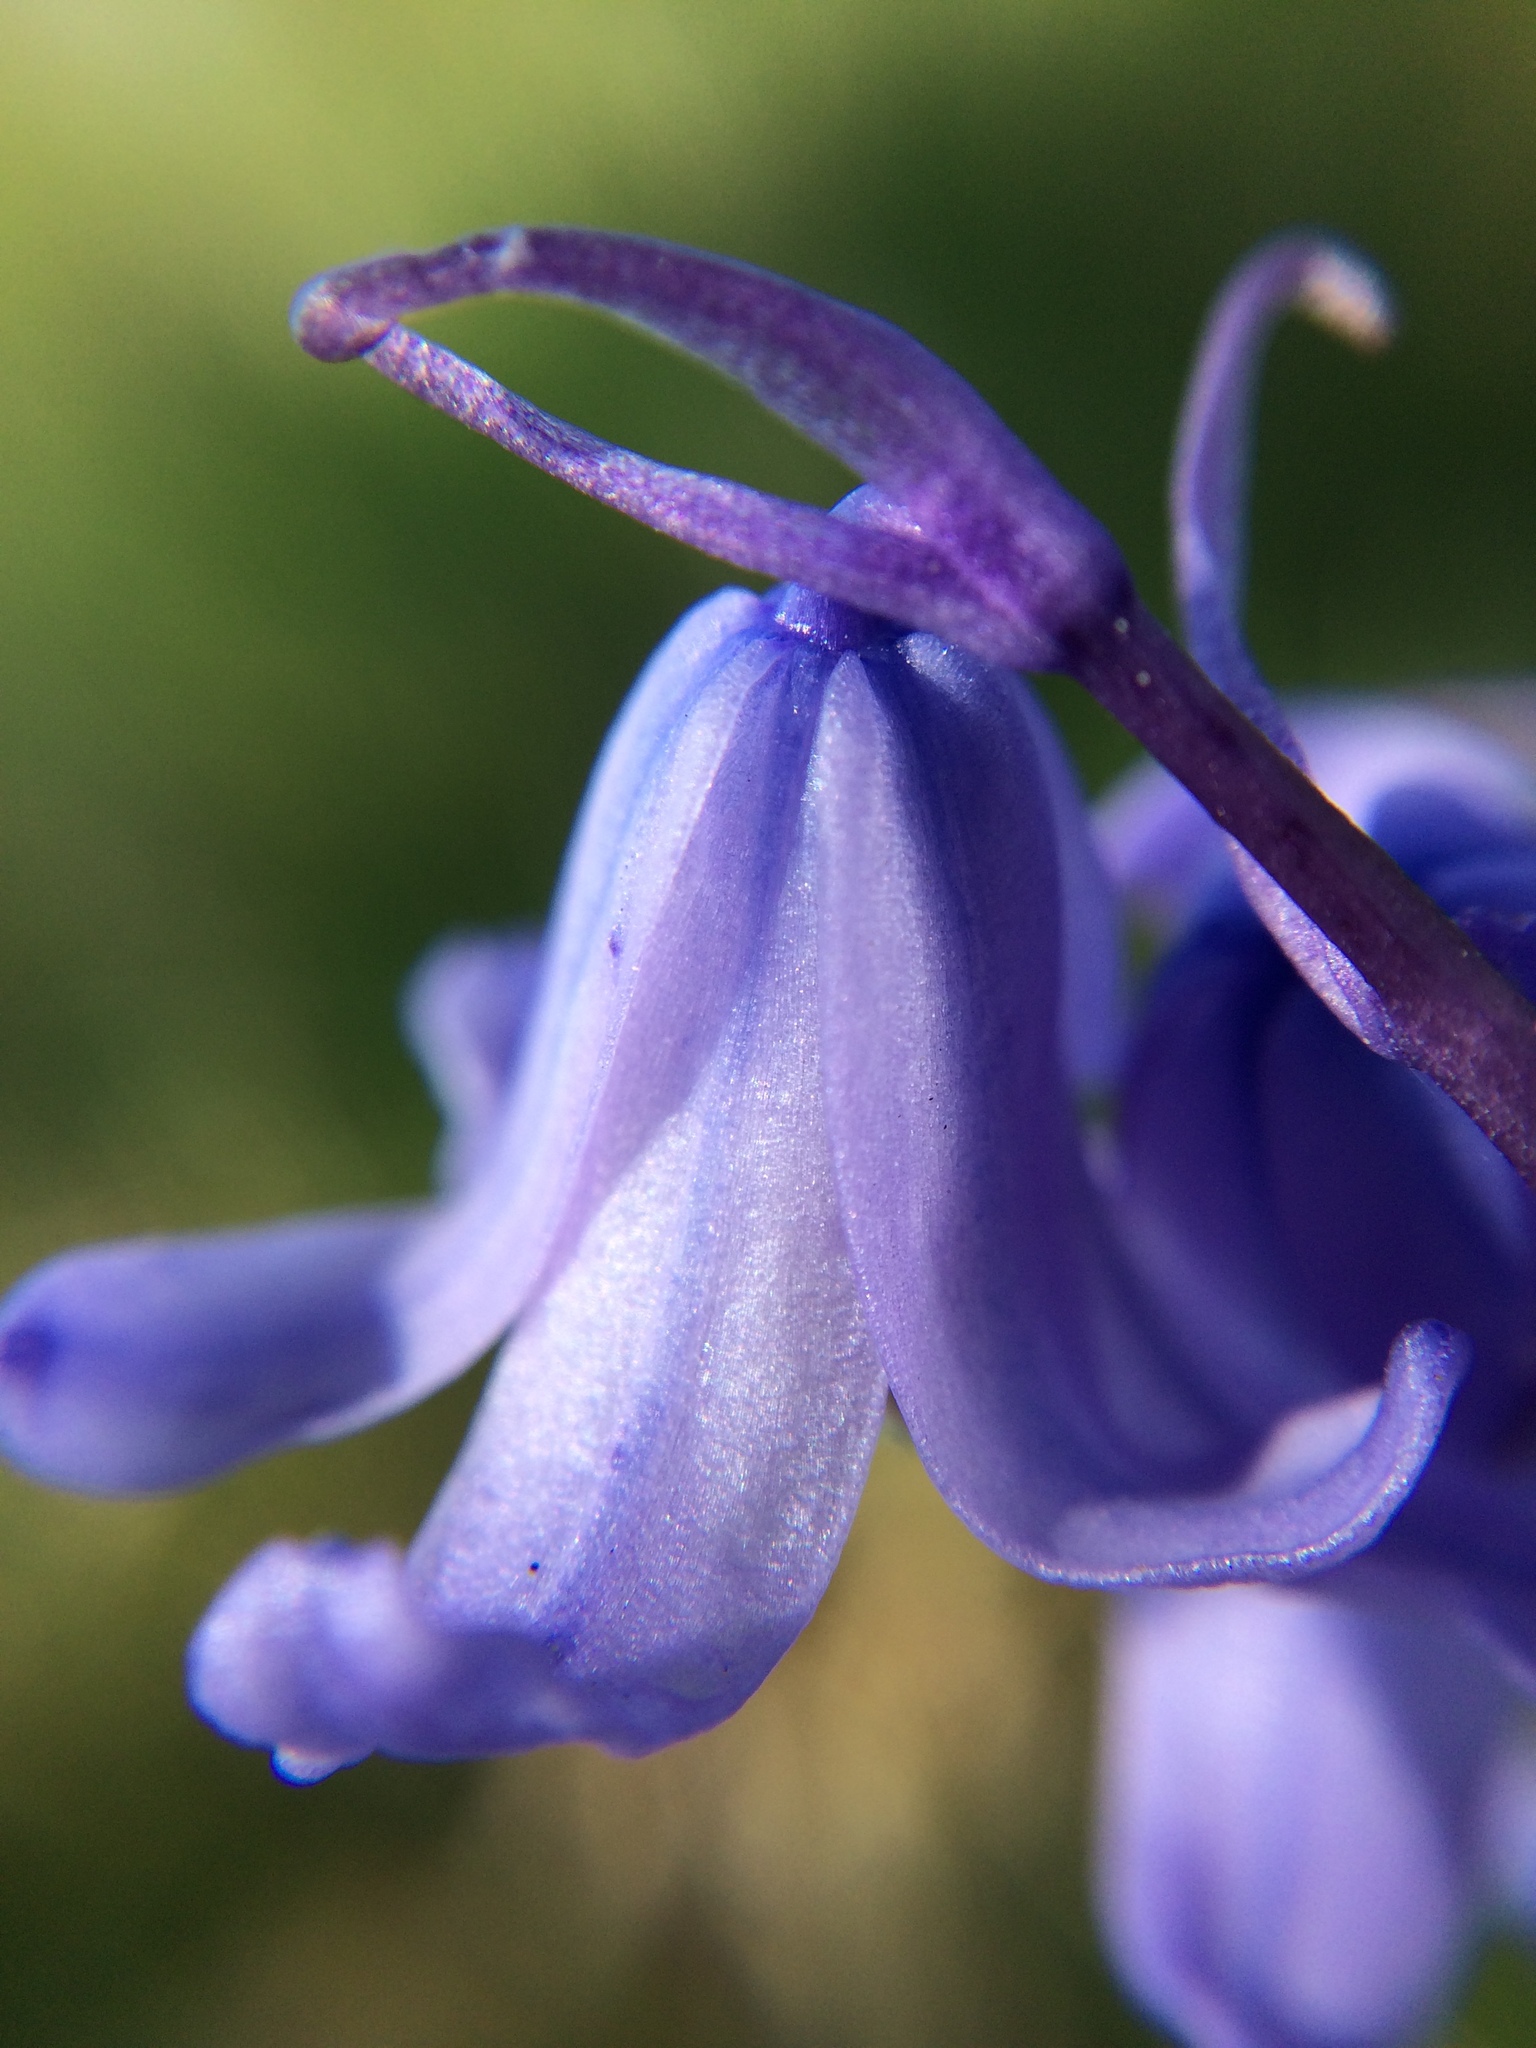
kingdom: Plantae
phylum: Tracheophyta
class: Liliopsida
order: Asparagales
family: Asparagaceae
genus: Hyacinthoides
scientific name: Hyacinthoides massartiana
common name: Hyacinthoides
